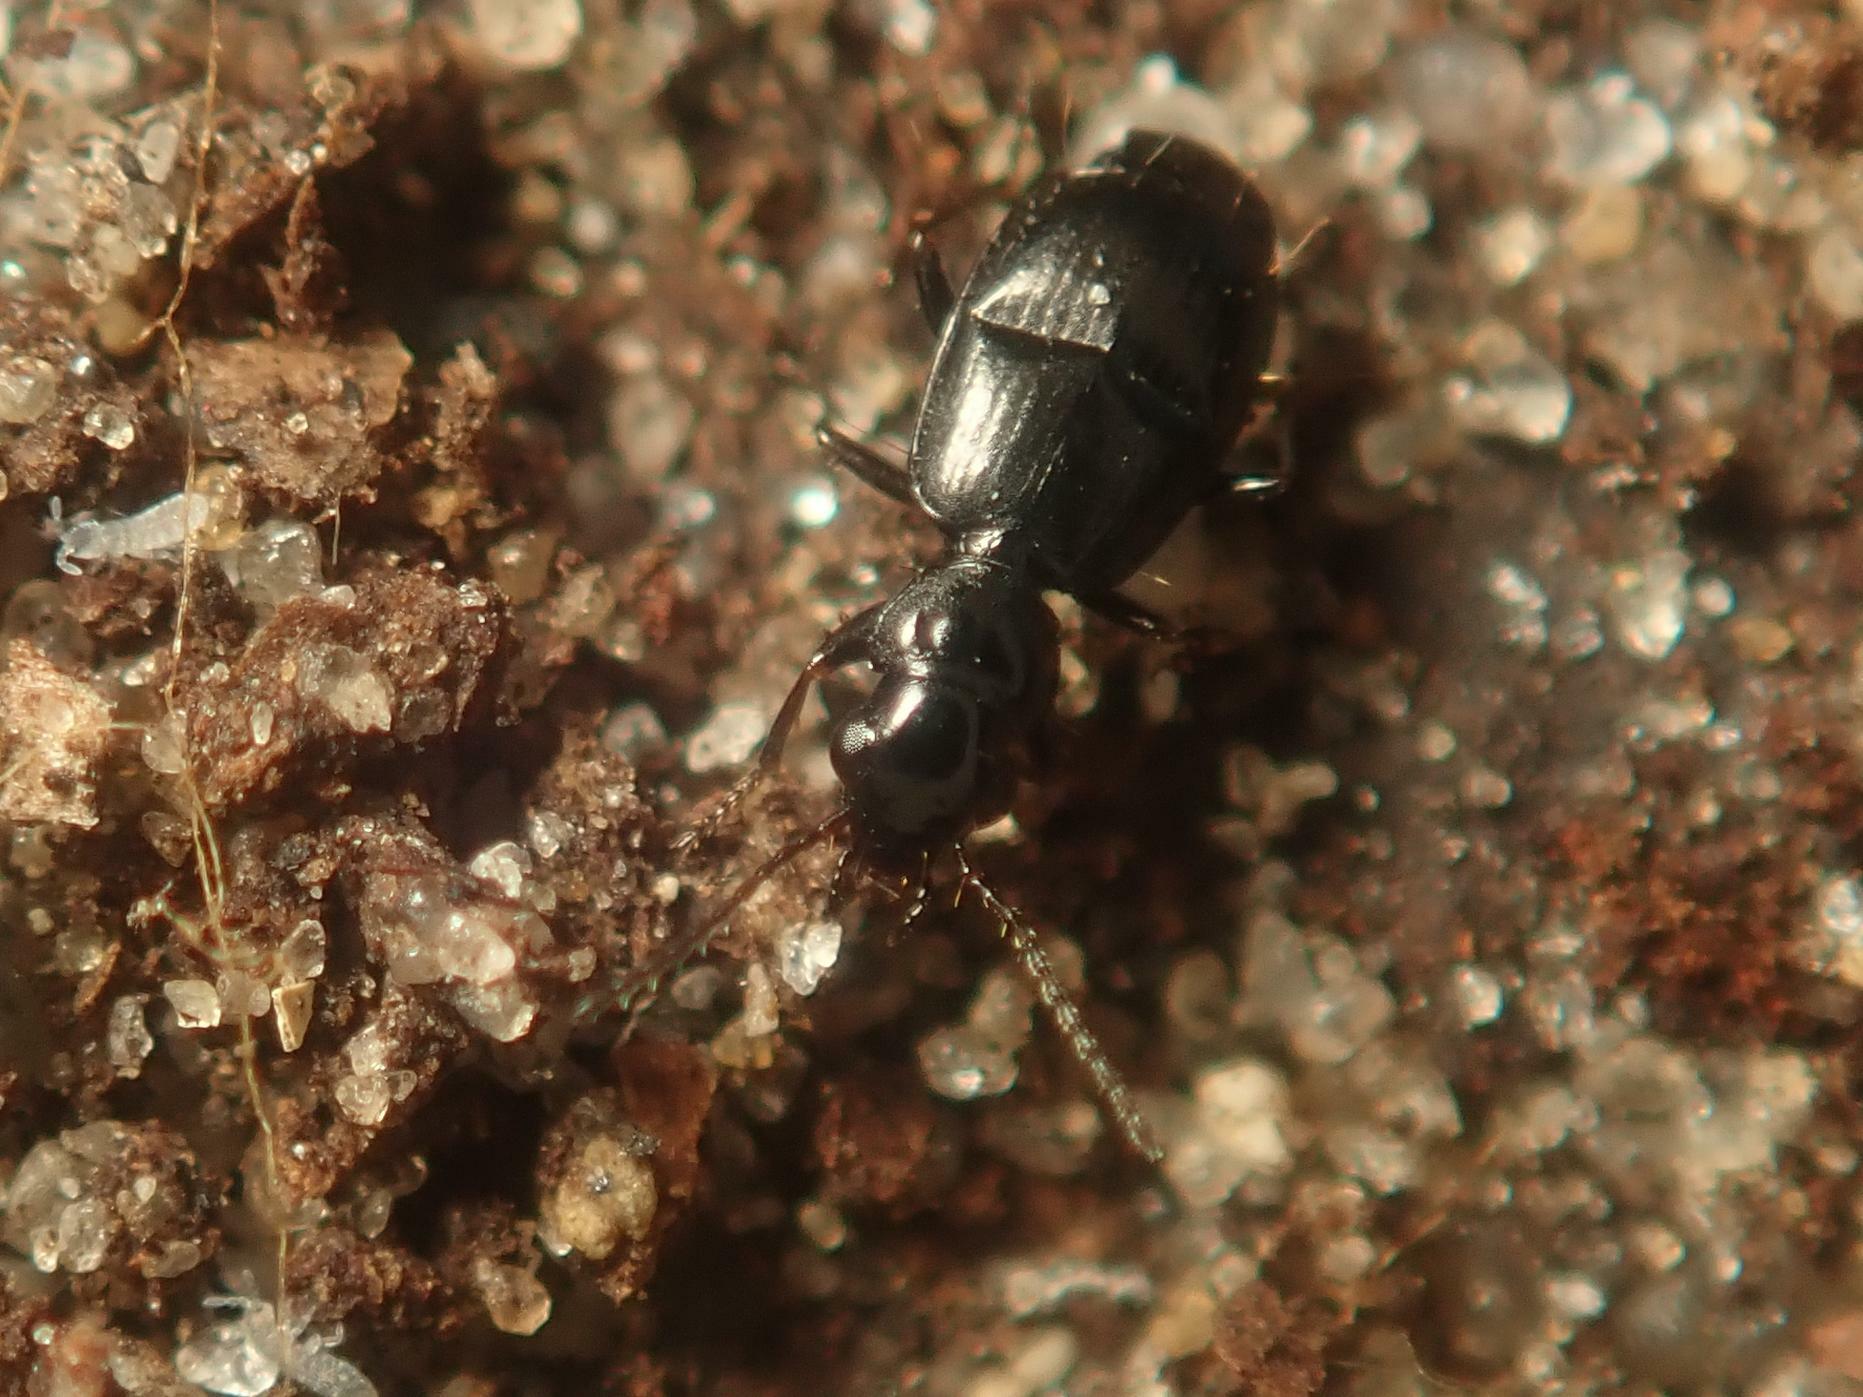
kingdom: Animalia
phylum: Arthropoda
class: Insecta
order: Coleoptera
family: Carabidae
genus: Syntomus
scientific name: Syntomus truncatellus
